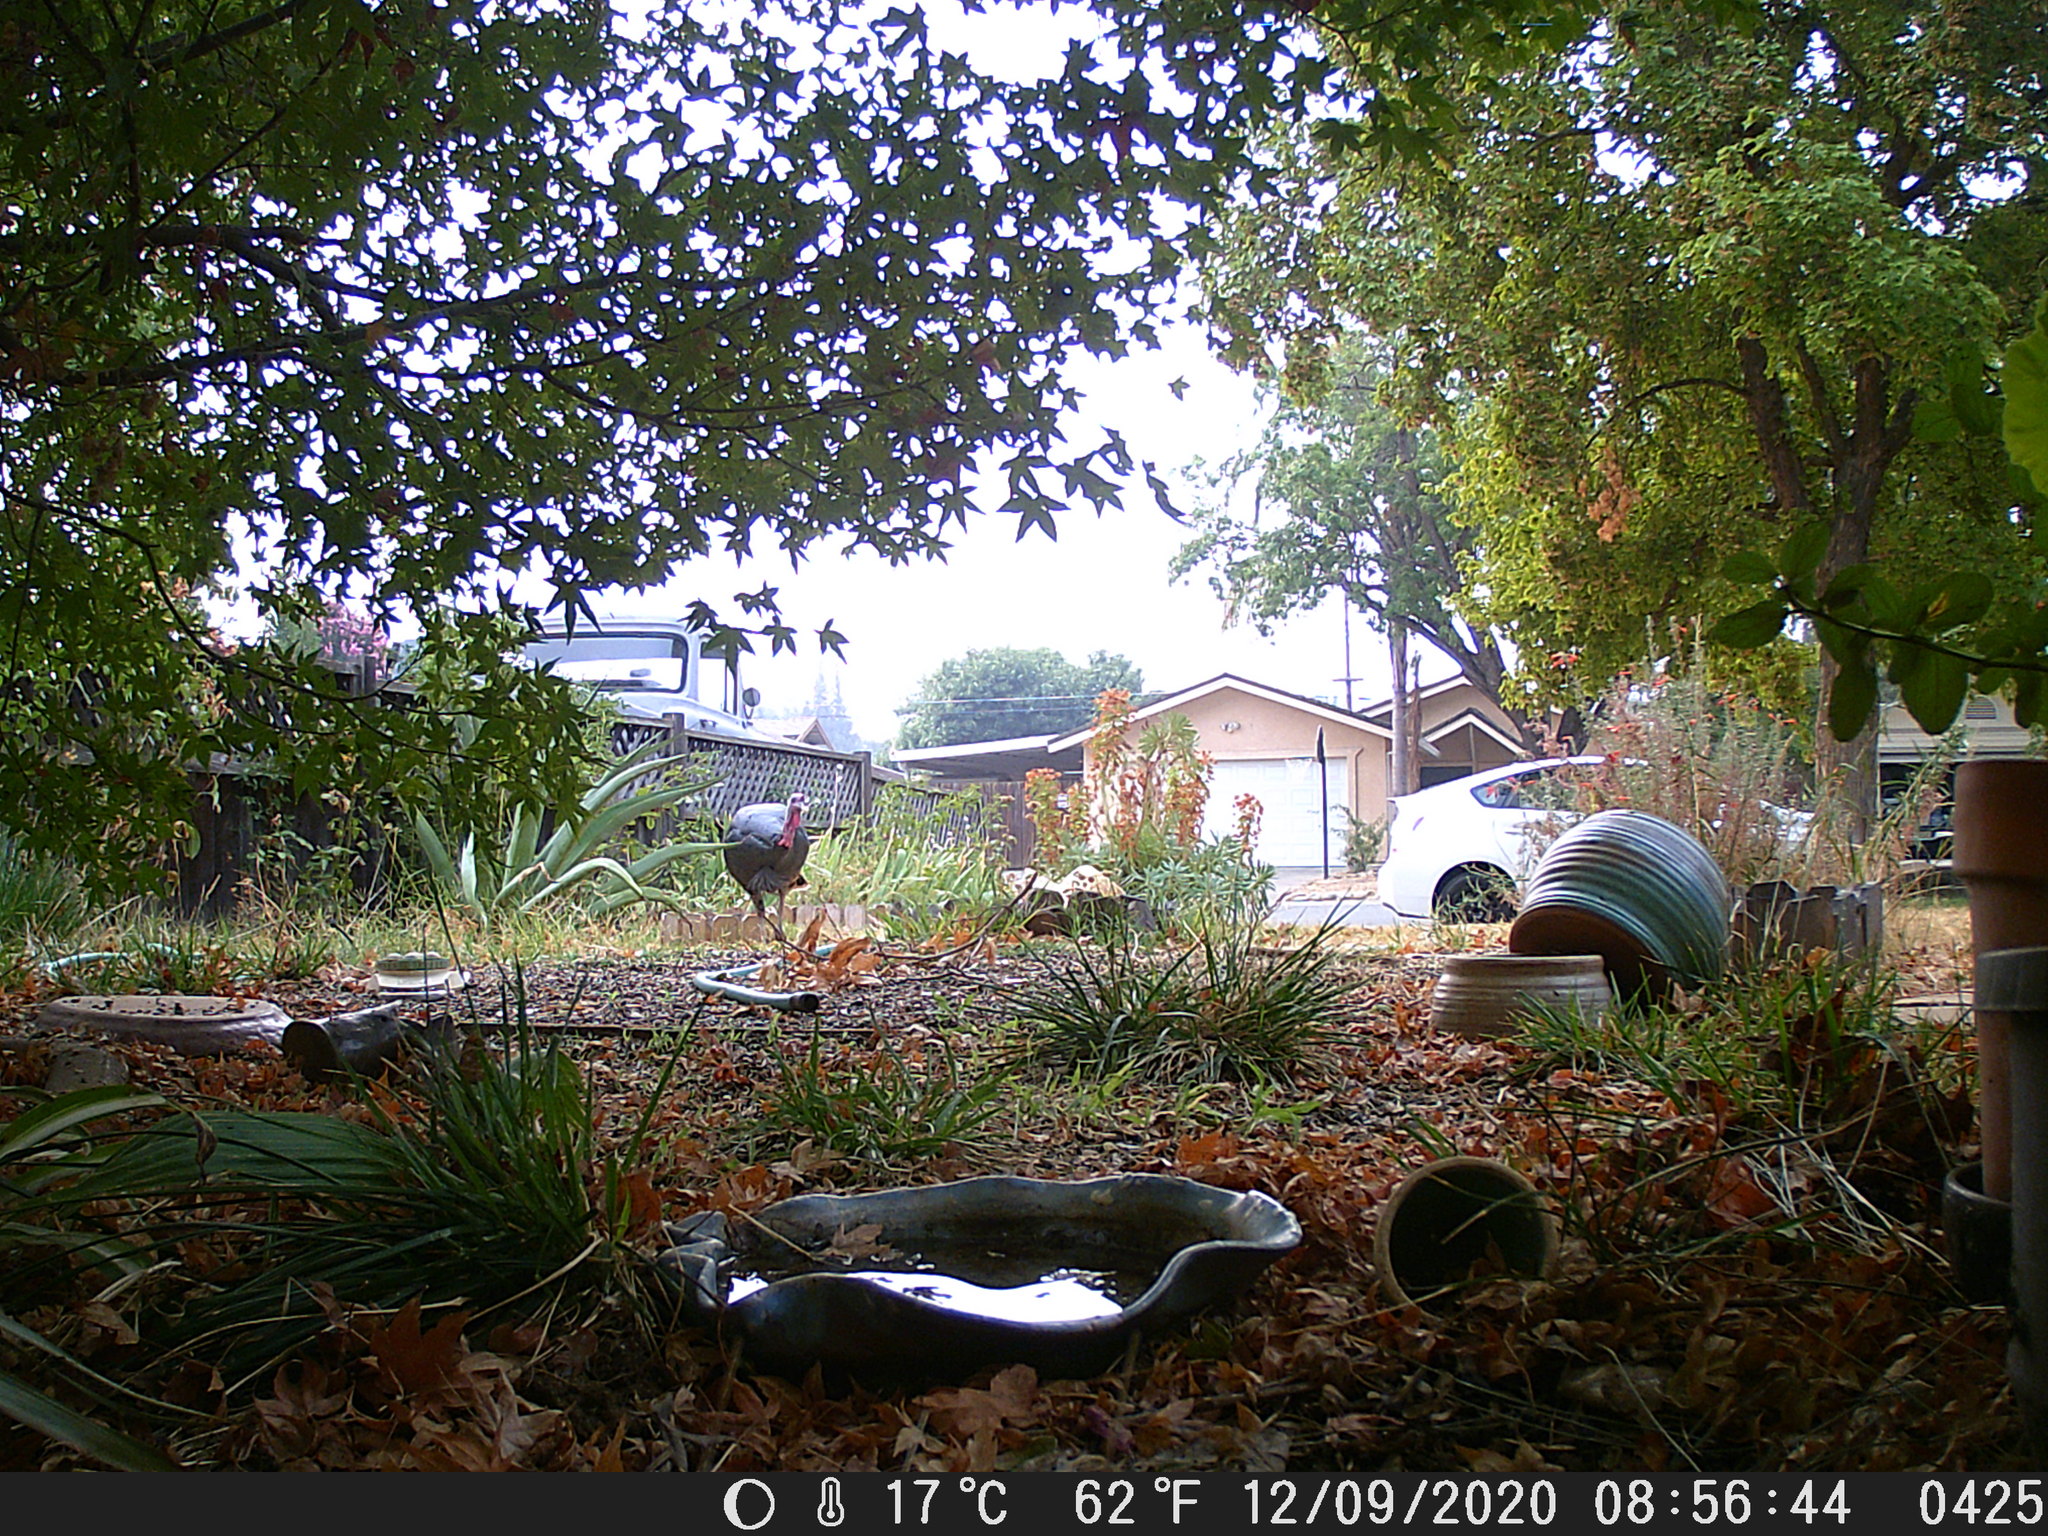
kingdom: Animalia
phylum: Chordata
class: Aves
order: Galliformes
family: Phasianidae
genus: Meleagris
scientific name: Meleagris gallopavo
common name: Wild turkey
